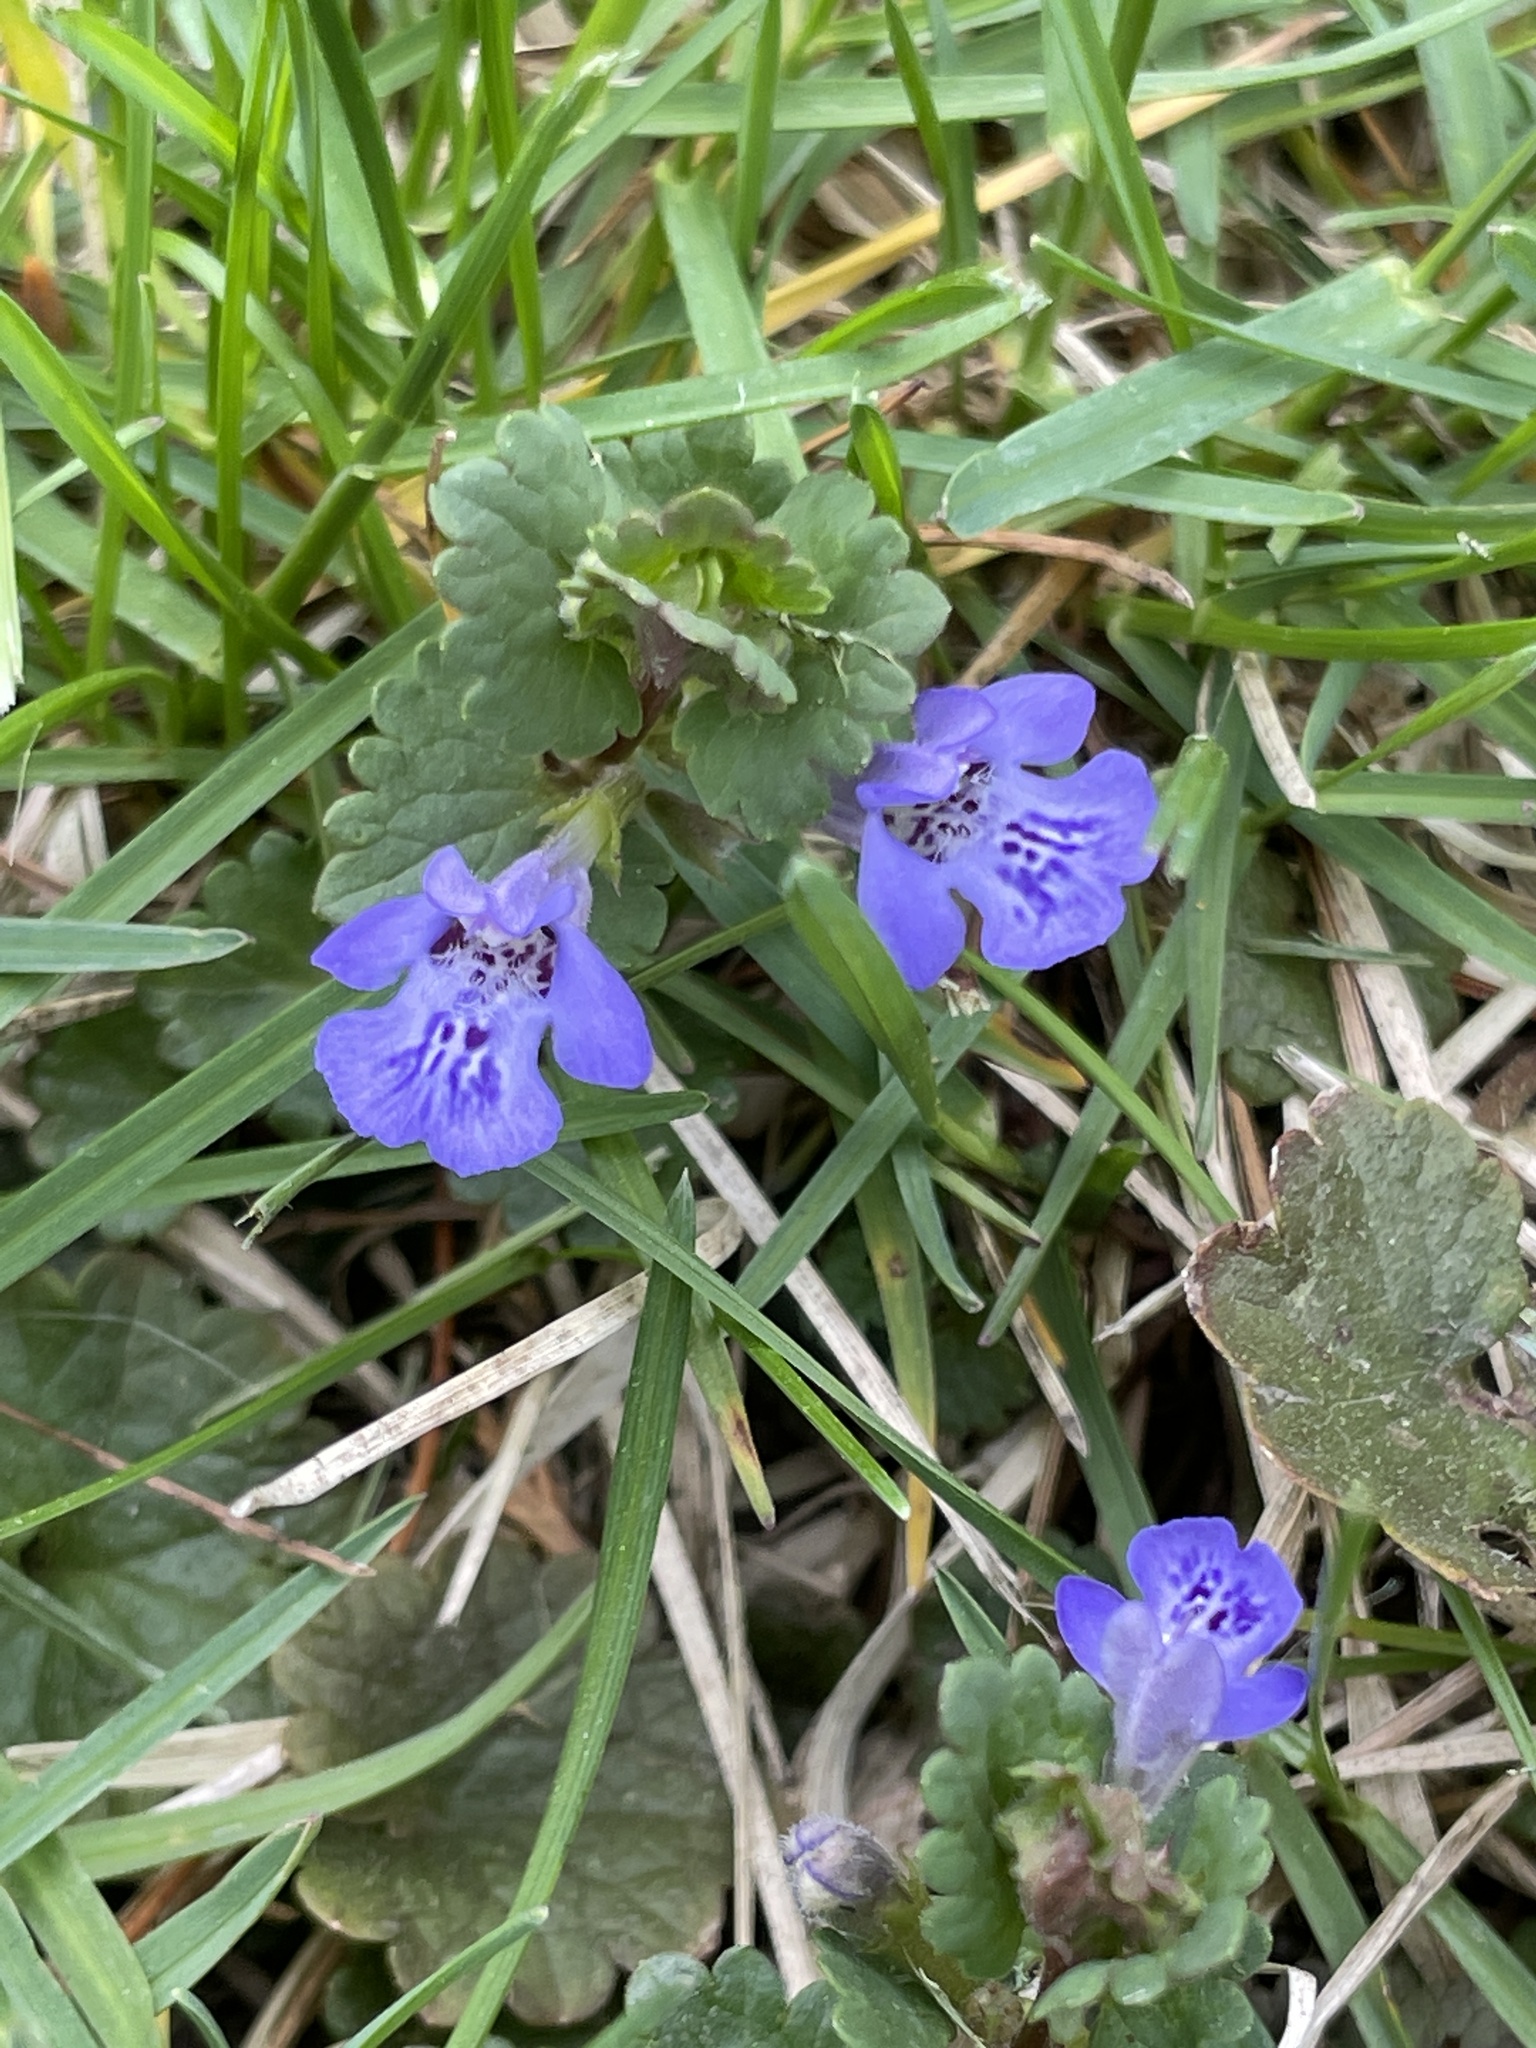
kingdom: Plantae
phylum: Tracheophyta
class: Magnoliopsida
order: Lamiales
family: Lamiaceae
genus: Glechoma
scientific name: Glechoma hederacea
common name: Ground ivy
